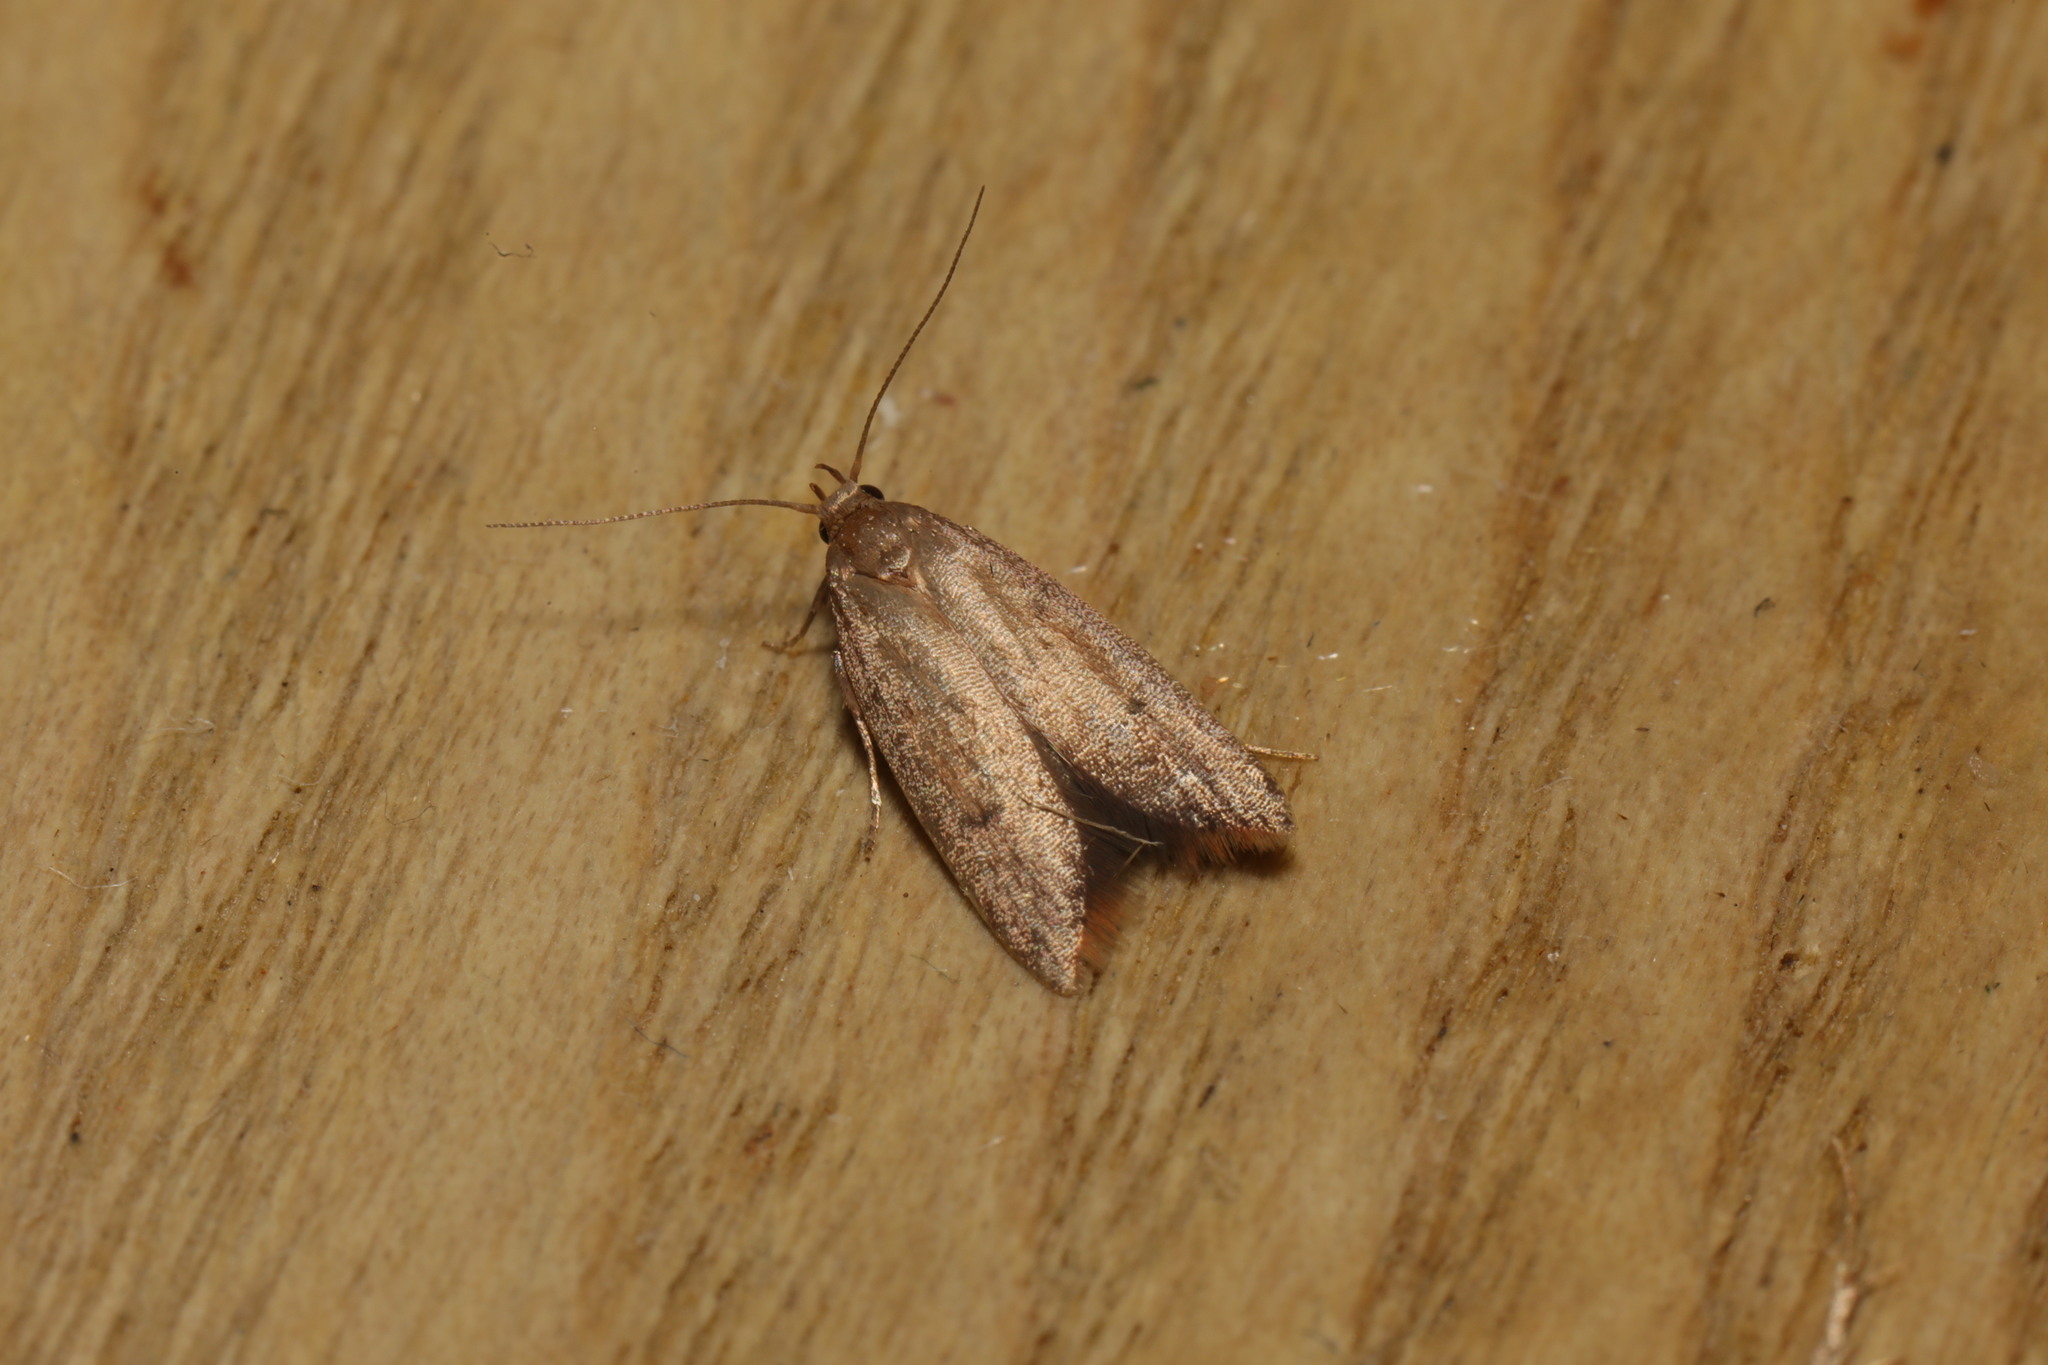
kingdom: Animalia
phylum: Arthropoda
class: Insecta
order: Lepidoptera
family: Oecophoridae
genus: Tachystola
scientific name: Tachystola acroxantha
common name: Ruddy streak
